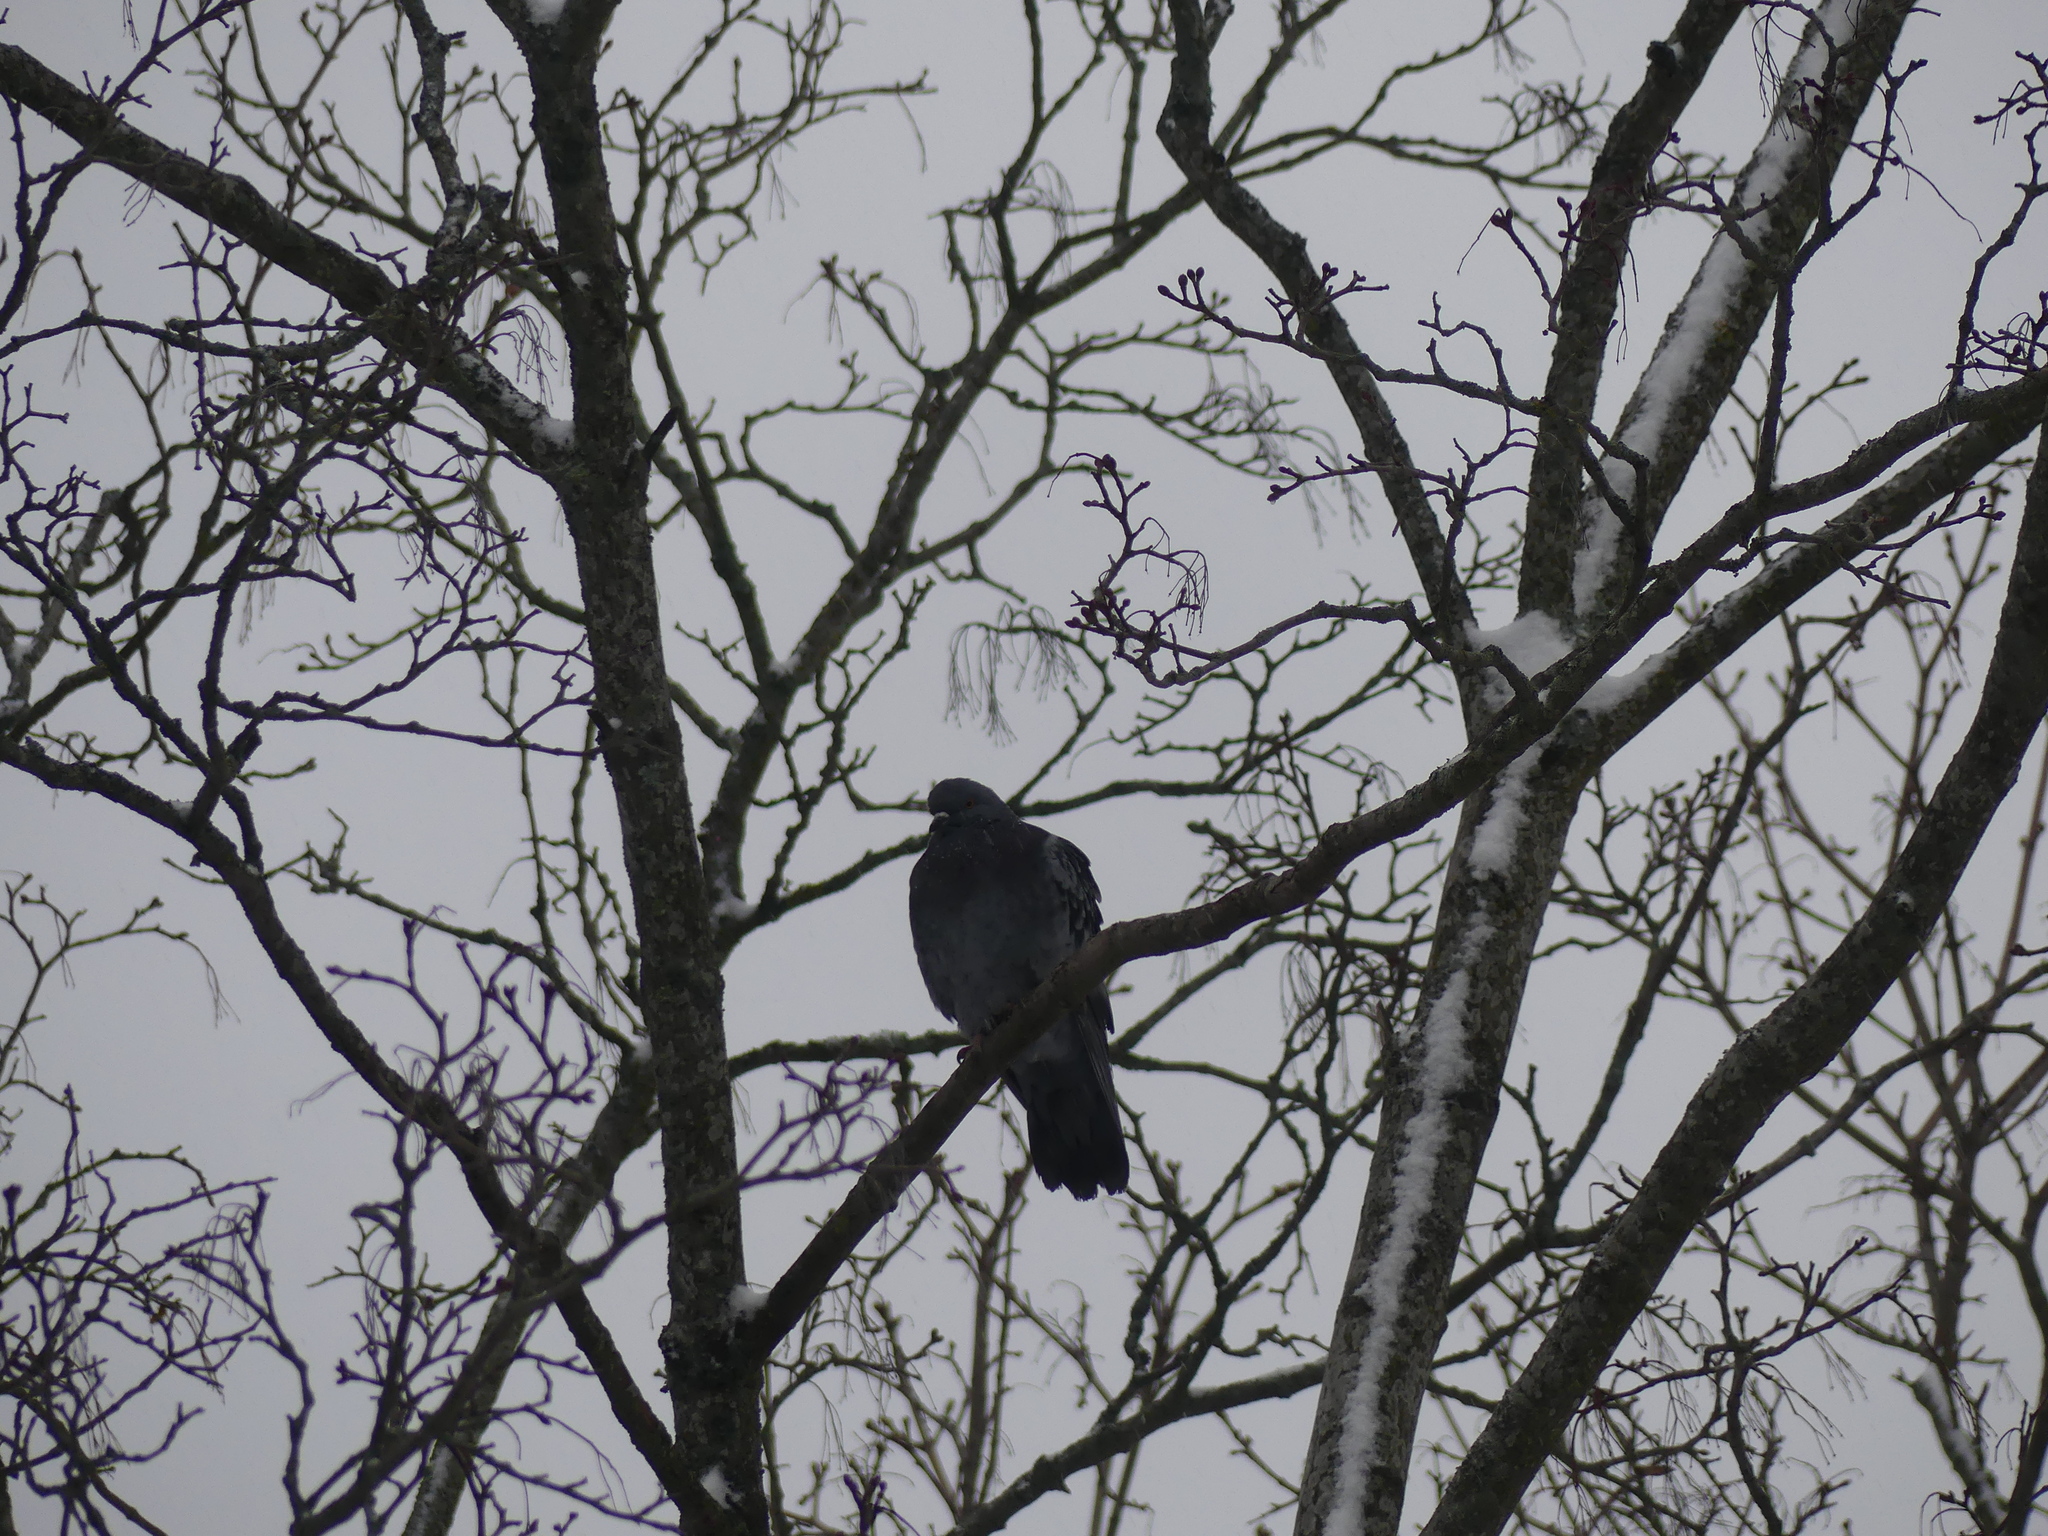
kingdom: Animalia
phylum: Chordata
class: Aves
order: Columbiformes
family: Columbidae
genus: Columba
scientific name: Columba livia
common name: Rock pigeon
